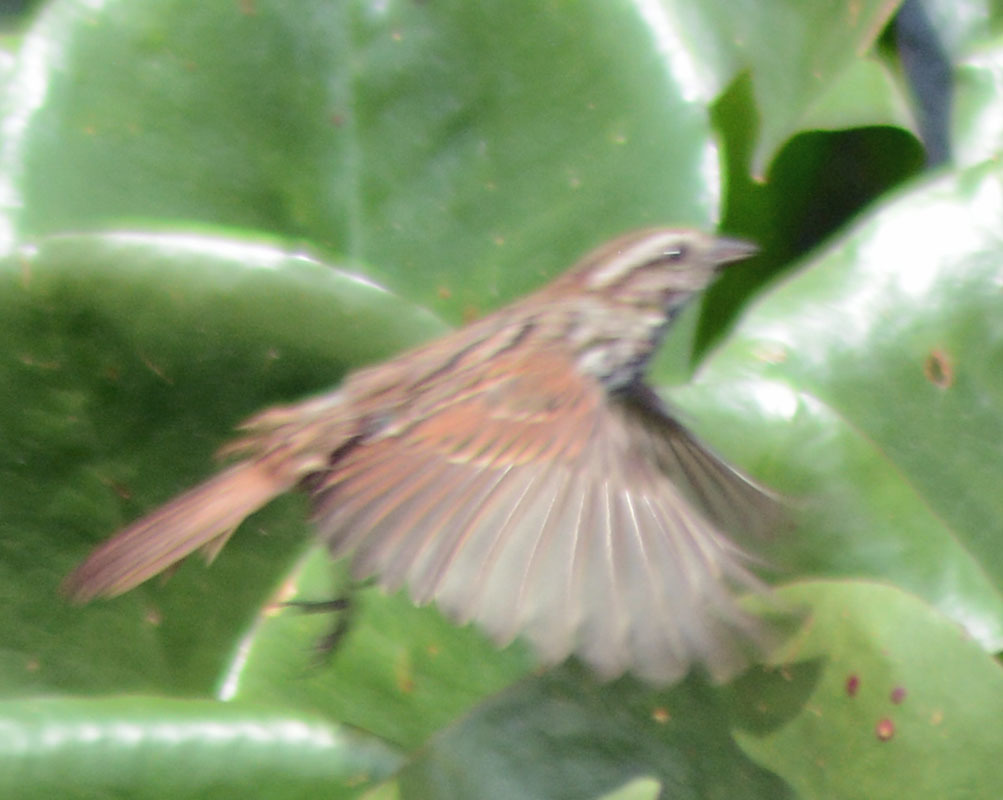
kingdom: Animalia
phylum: Chordata
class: Aves
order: Passeriformes
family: Passerellidae
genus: Melospiza
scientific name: Melospiza melodia
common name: Song sparrow
